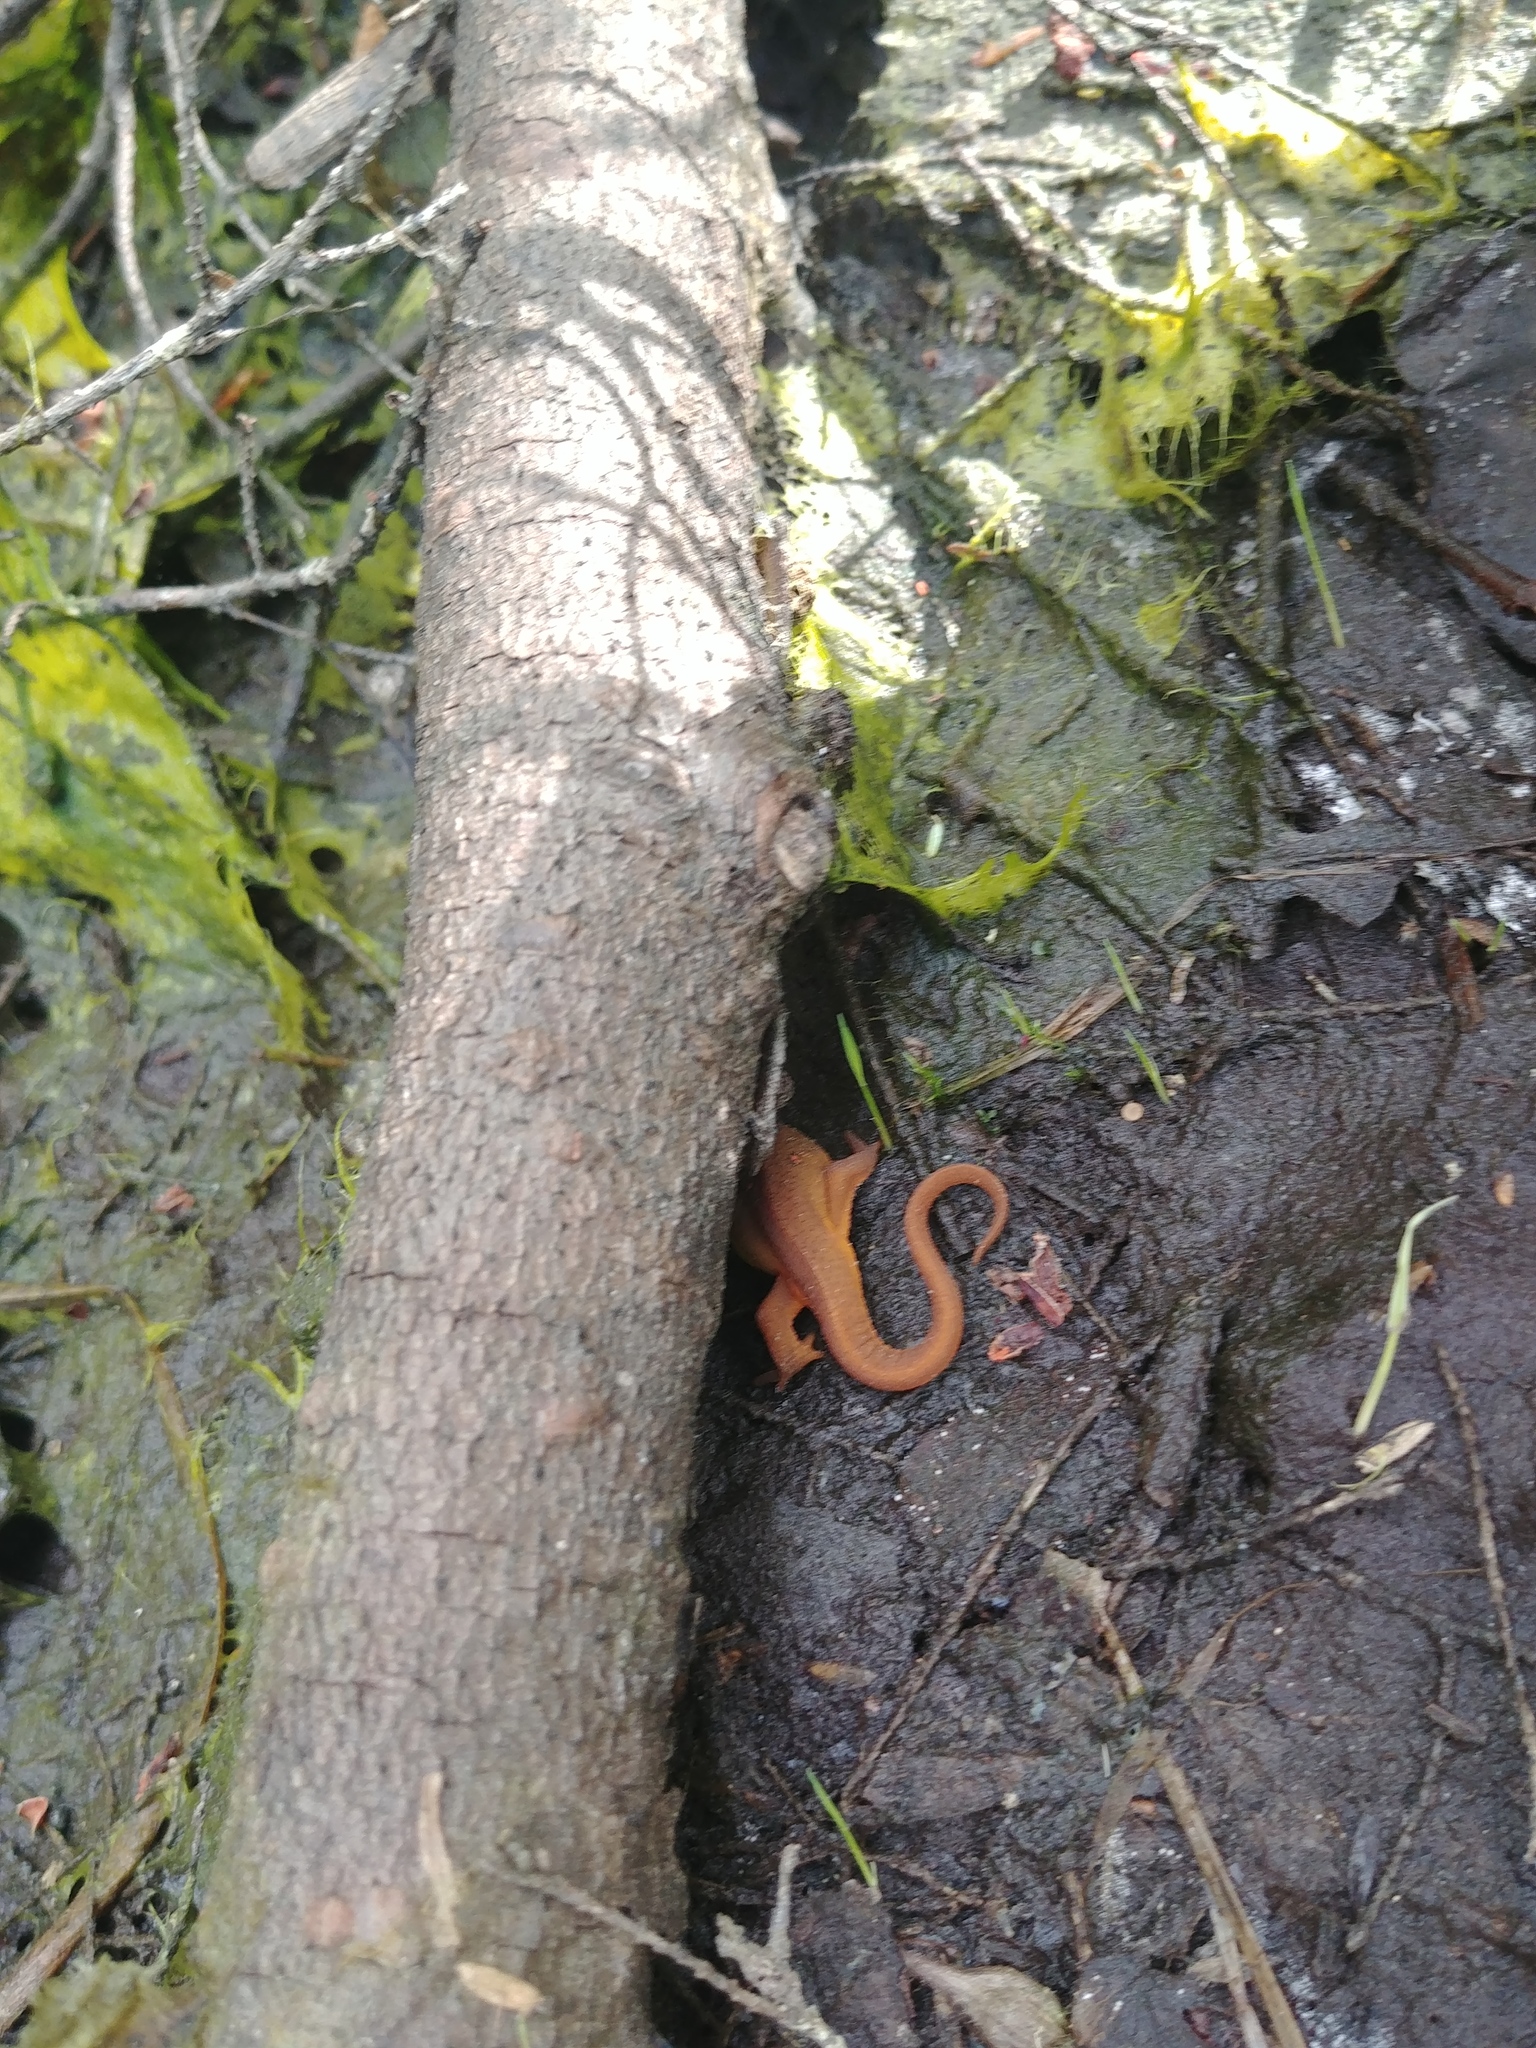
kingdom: Animalia
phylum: Chordata
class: Amphibia
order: Caudata
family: Salamandridae
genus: Notophthalmus
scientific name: Notophthalmus viridescens
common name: Eastern newt
